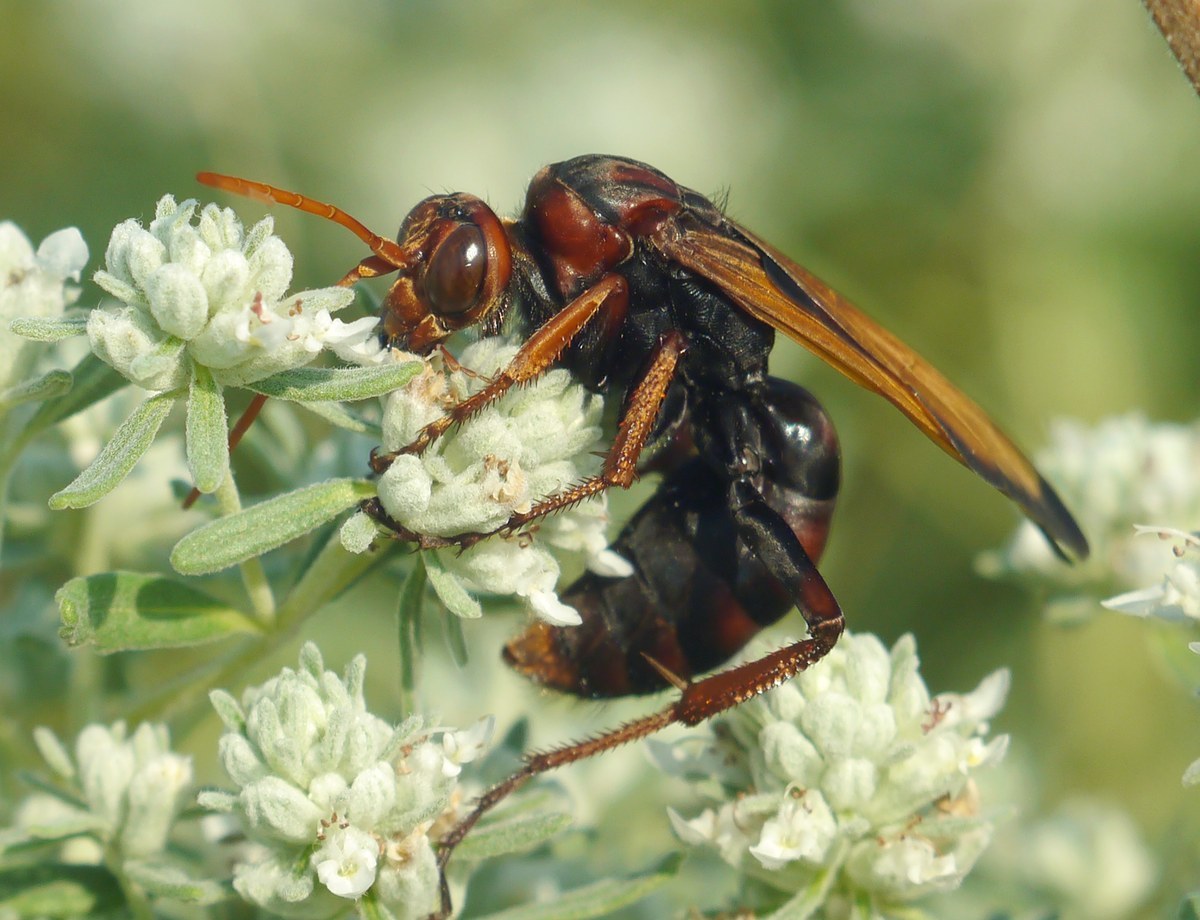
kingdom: Animalia
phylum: Arthropoda
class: Insecta
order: Hymenoptera
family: Pompilidae
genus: Cryptocheilus
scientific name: Cryptocheilus rubellus
